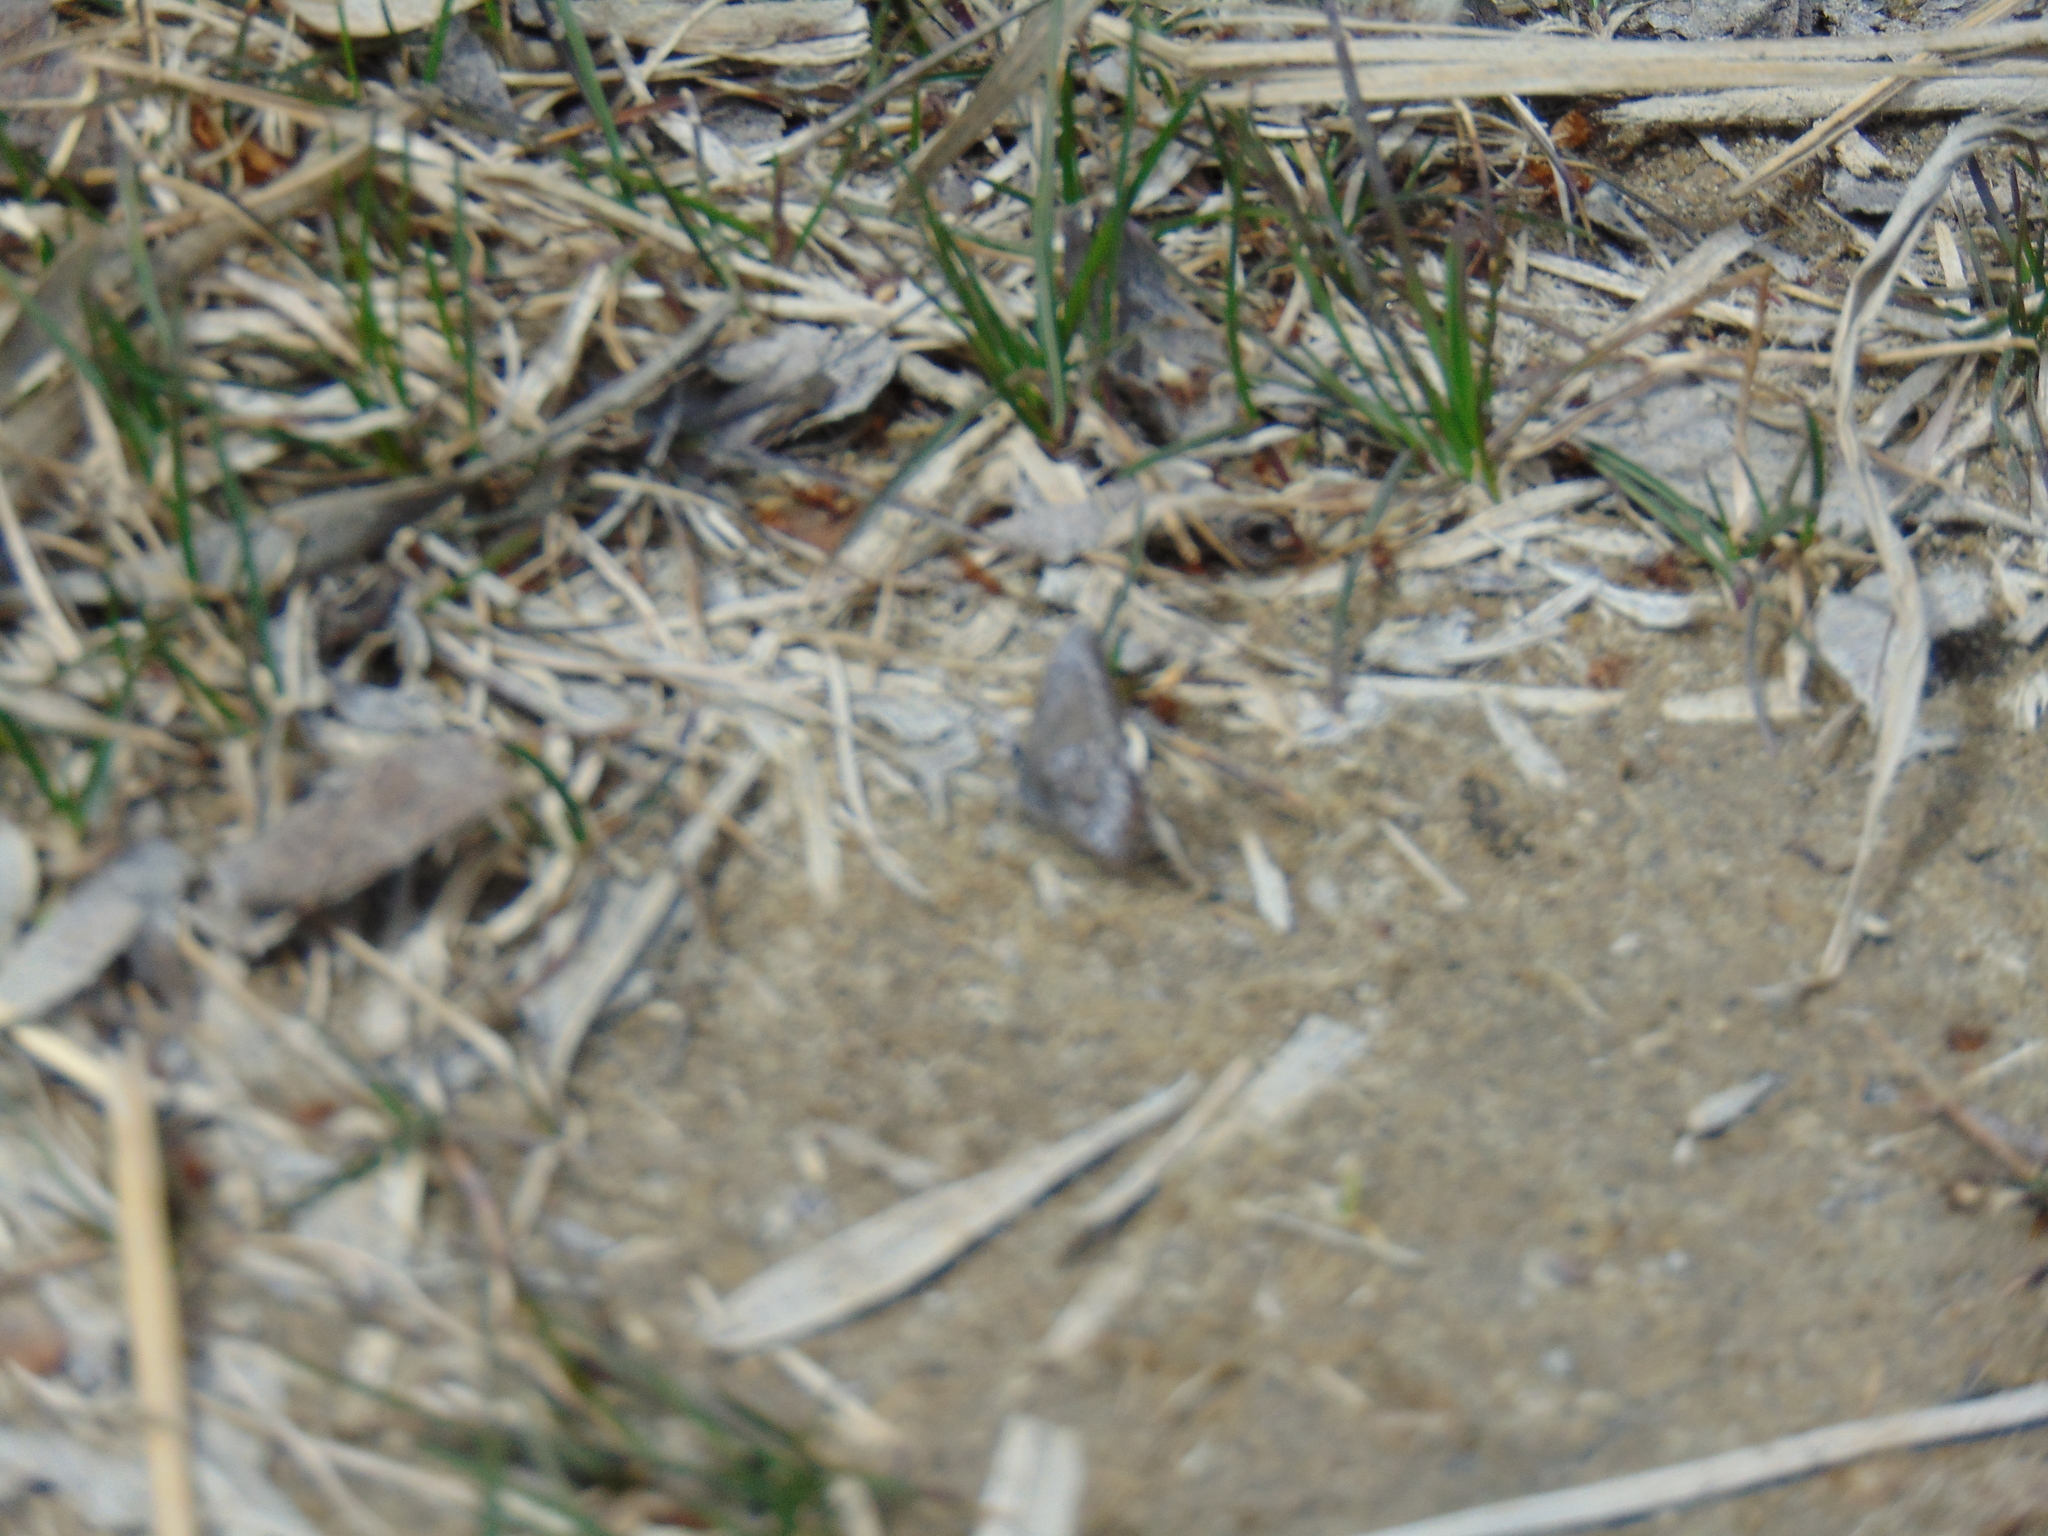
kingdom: Animalia
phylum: Arthropoda
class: Insecta
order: Lepidoptera
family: Lycaenidae
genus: Celastrina
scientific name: Celastrina lucia
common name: Lucia azure
